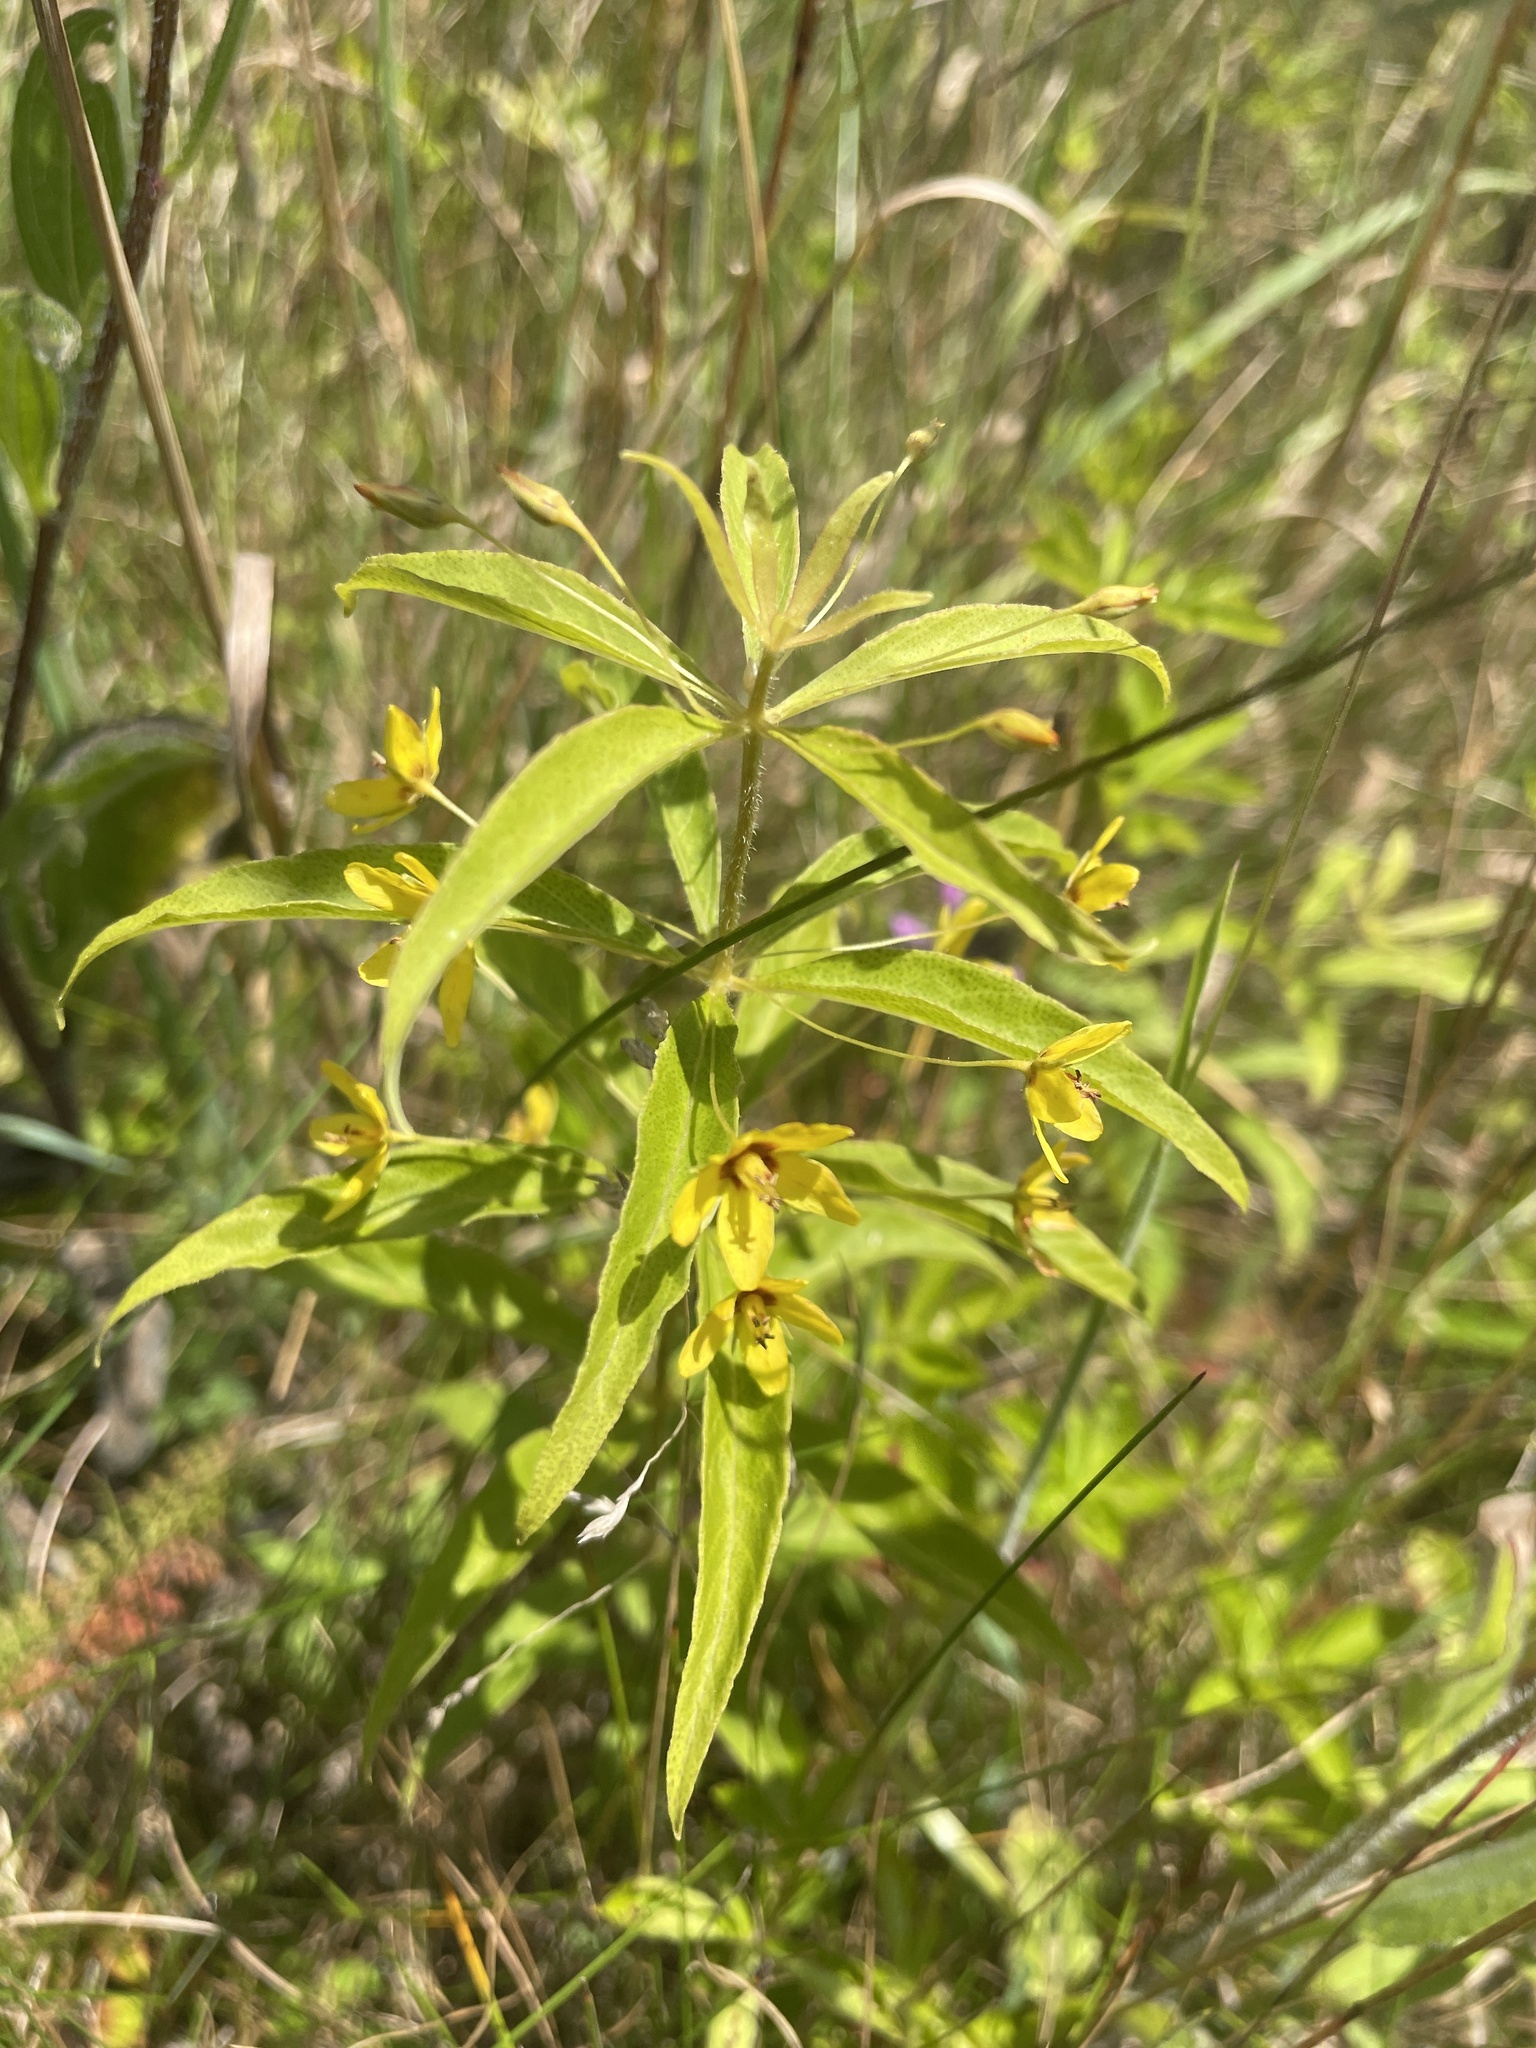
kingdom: Plantae
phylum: Tracheophyta
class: Magnoliopsida
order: Ericales
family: Primulaceae
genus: Lysimachia
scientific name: Lysimachia quadrifolia
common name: Whorled loosestrife
